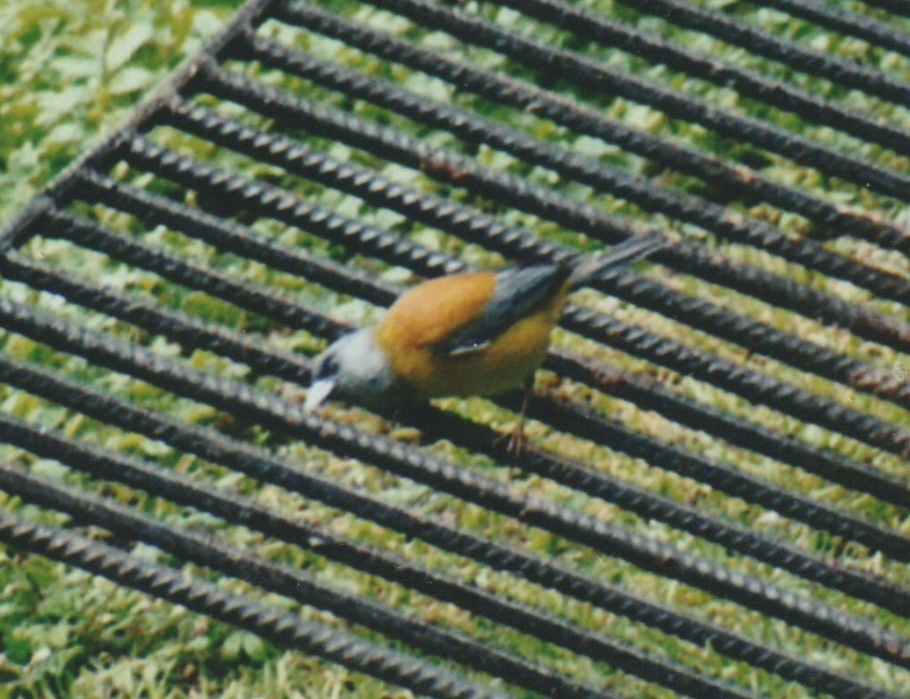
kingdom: Animalia
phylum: Chordata
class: Aves
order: Passeriformes
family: Thraupidae
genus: Phrygilus
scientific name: Phrygilus patagonicus
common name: Patagonian sierra finch
